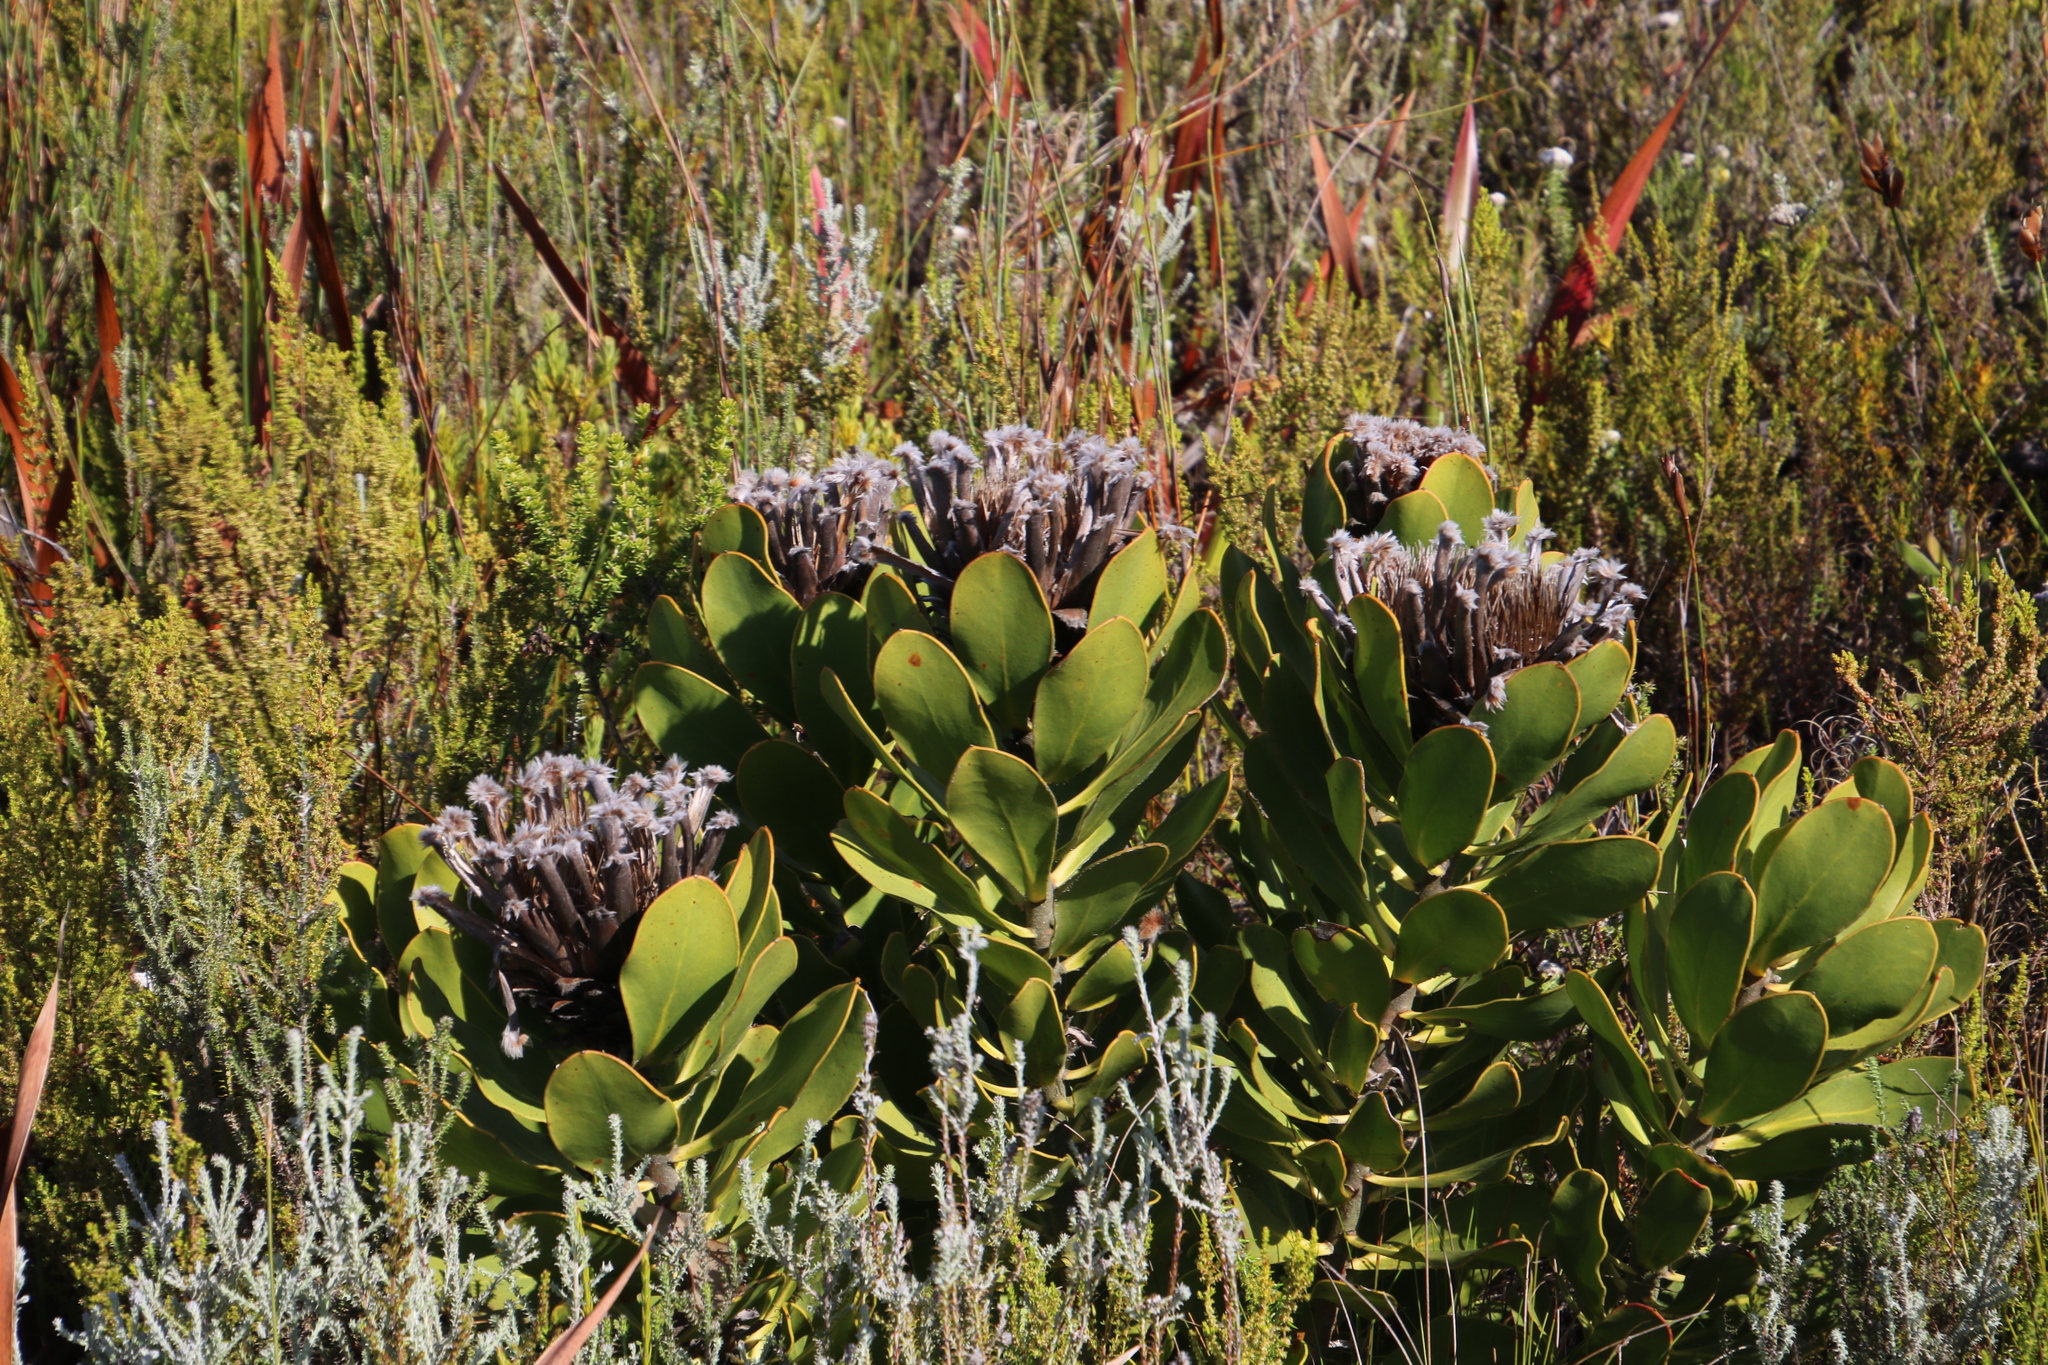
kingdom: Plantae
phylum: Tracheophyta
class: Magnoliopsida
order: Proteales
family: Proteaceae
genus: Protea
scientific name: Protea speciosa
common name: Brown-beard sugarbush
